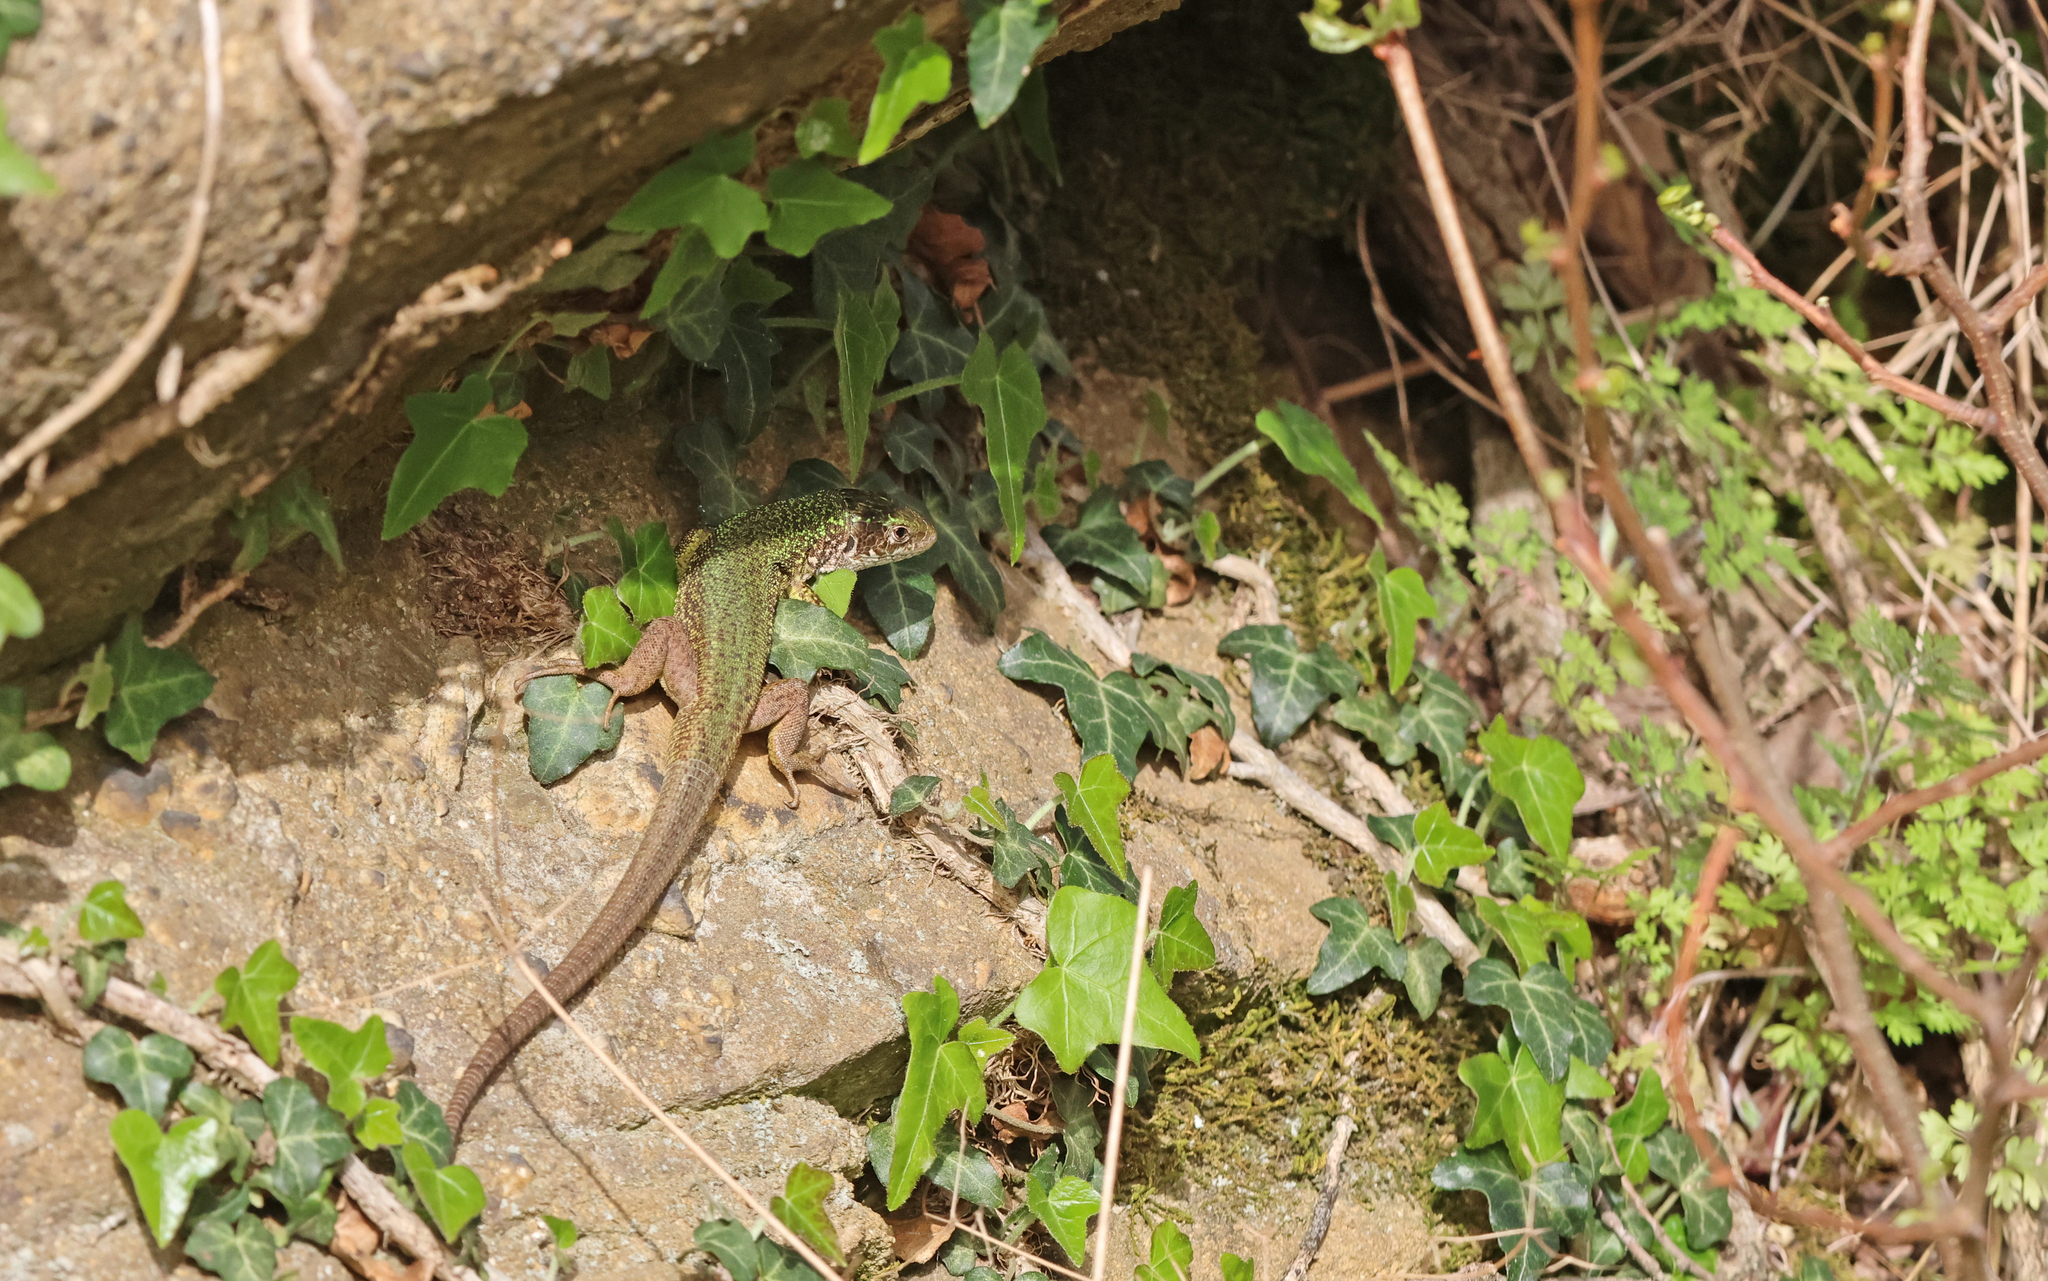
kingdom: Animalia
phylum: Chordata
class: Squamata
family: Lacertidae
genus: Lacerta
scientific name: Lacerta viridis
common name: European green lizard
